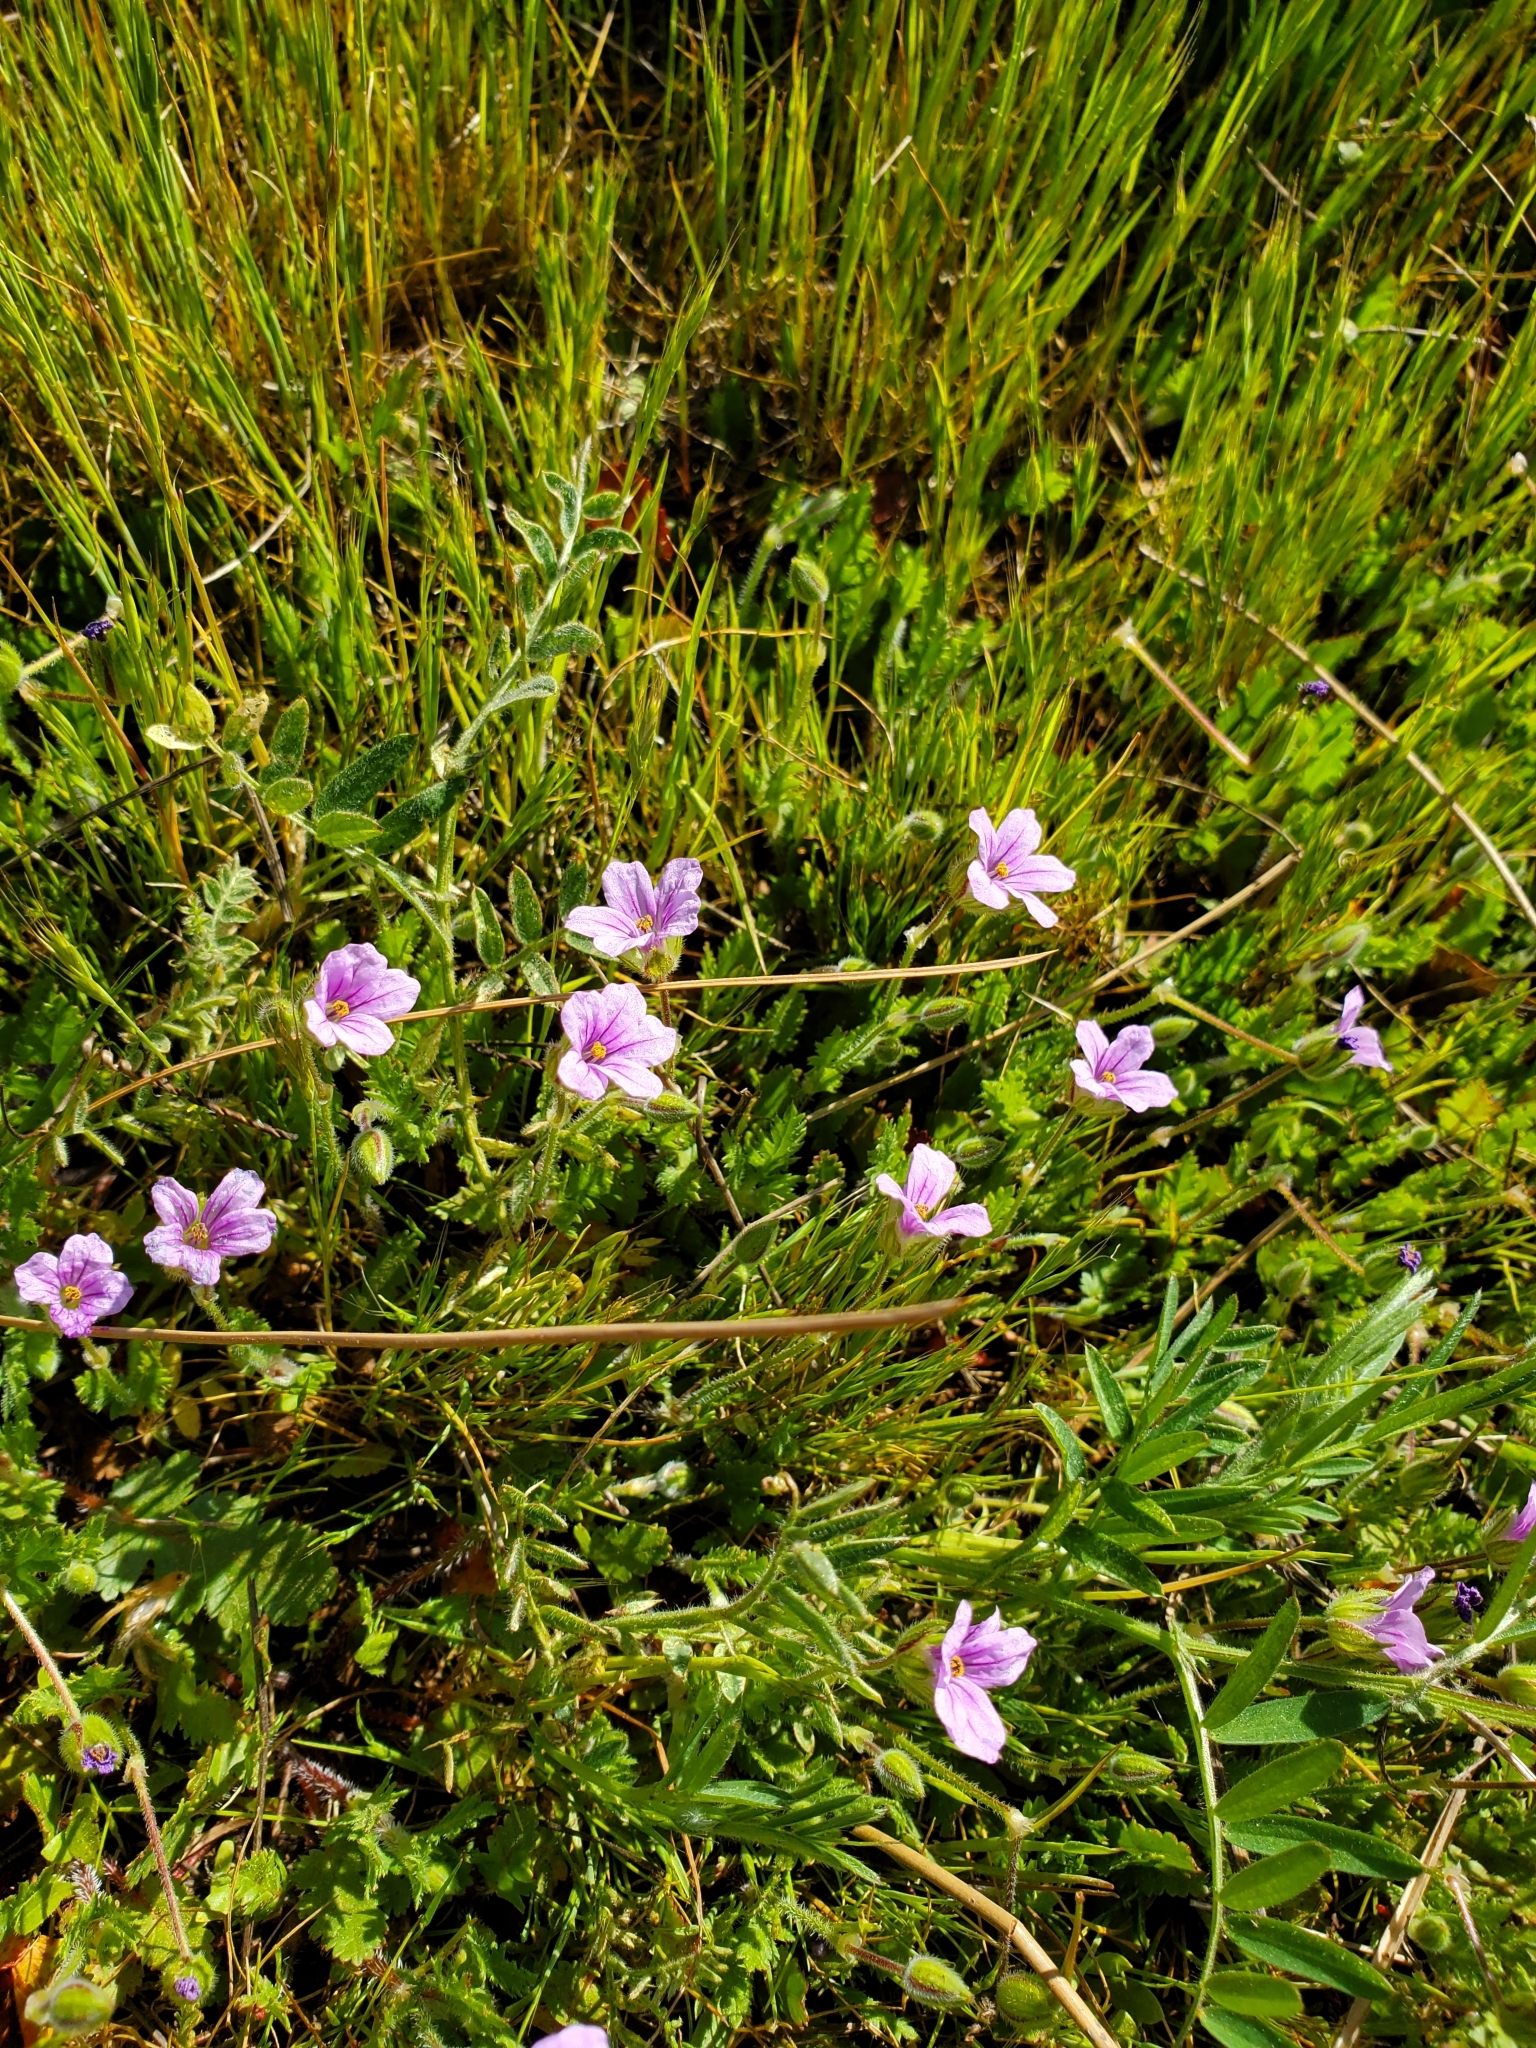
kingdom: Plantae
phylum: Tracheophyta
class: Magnoliopsida
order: Geraniales
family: Geraniaceae
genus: Erodium
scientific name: Erodium botrys
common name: Mediterranean stork's-bill
